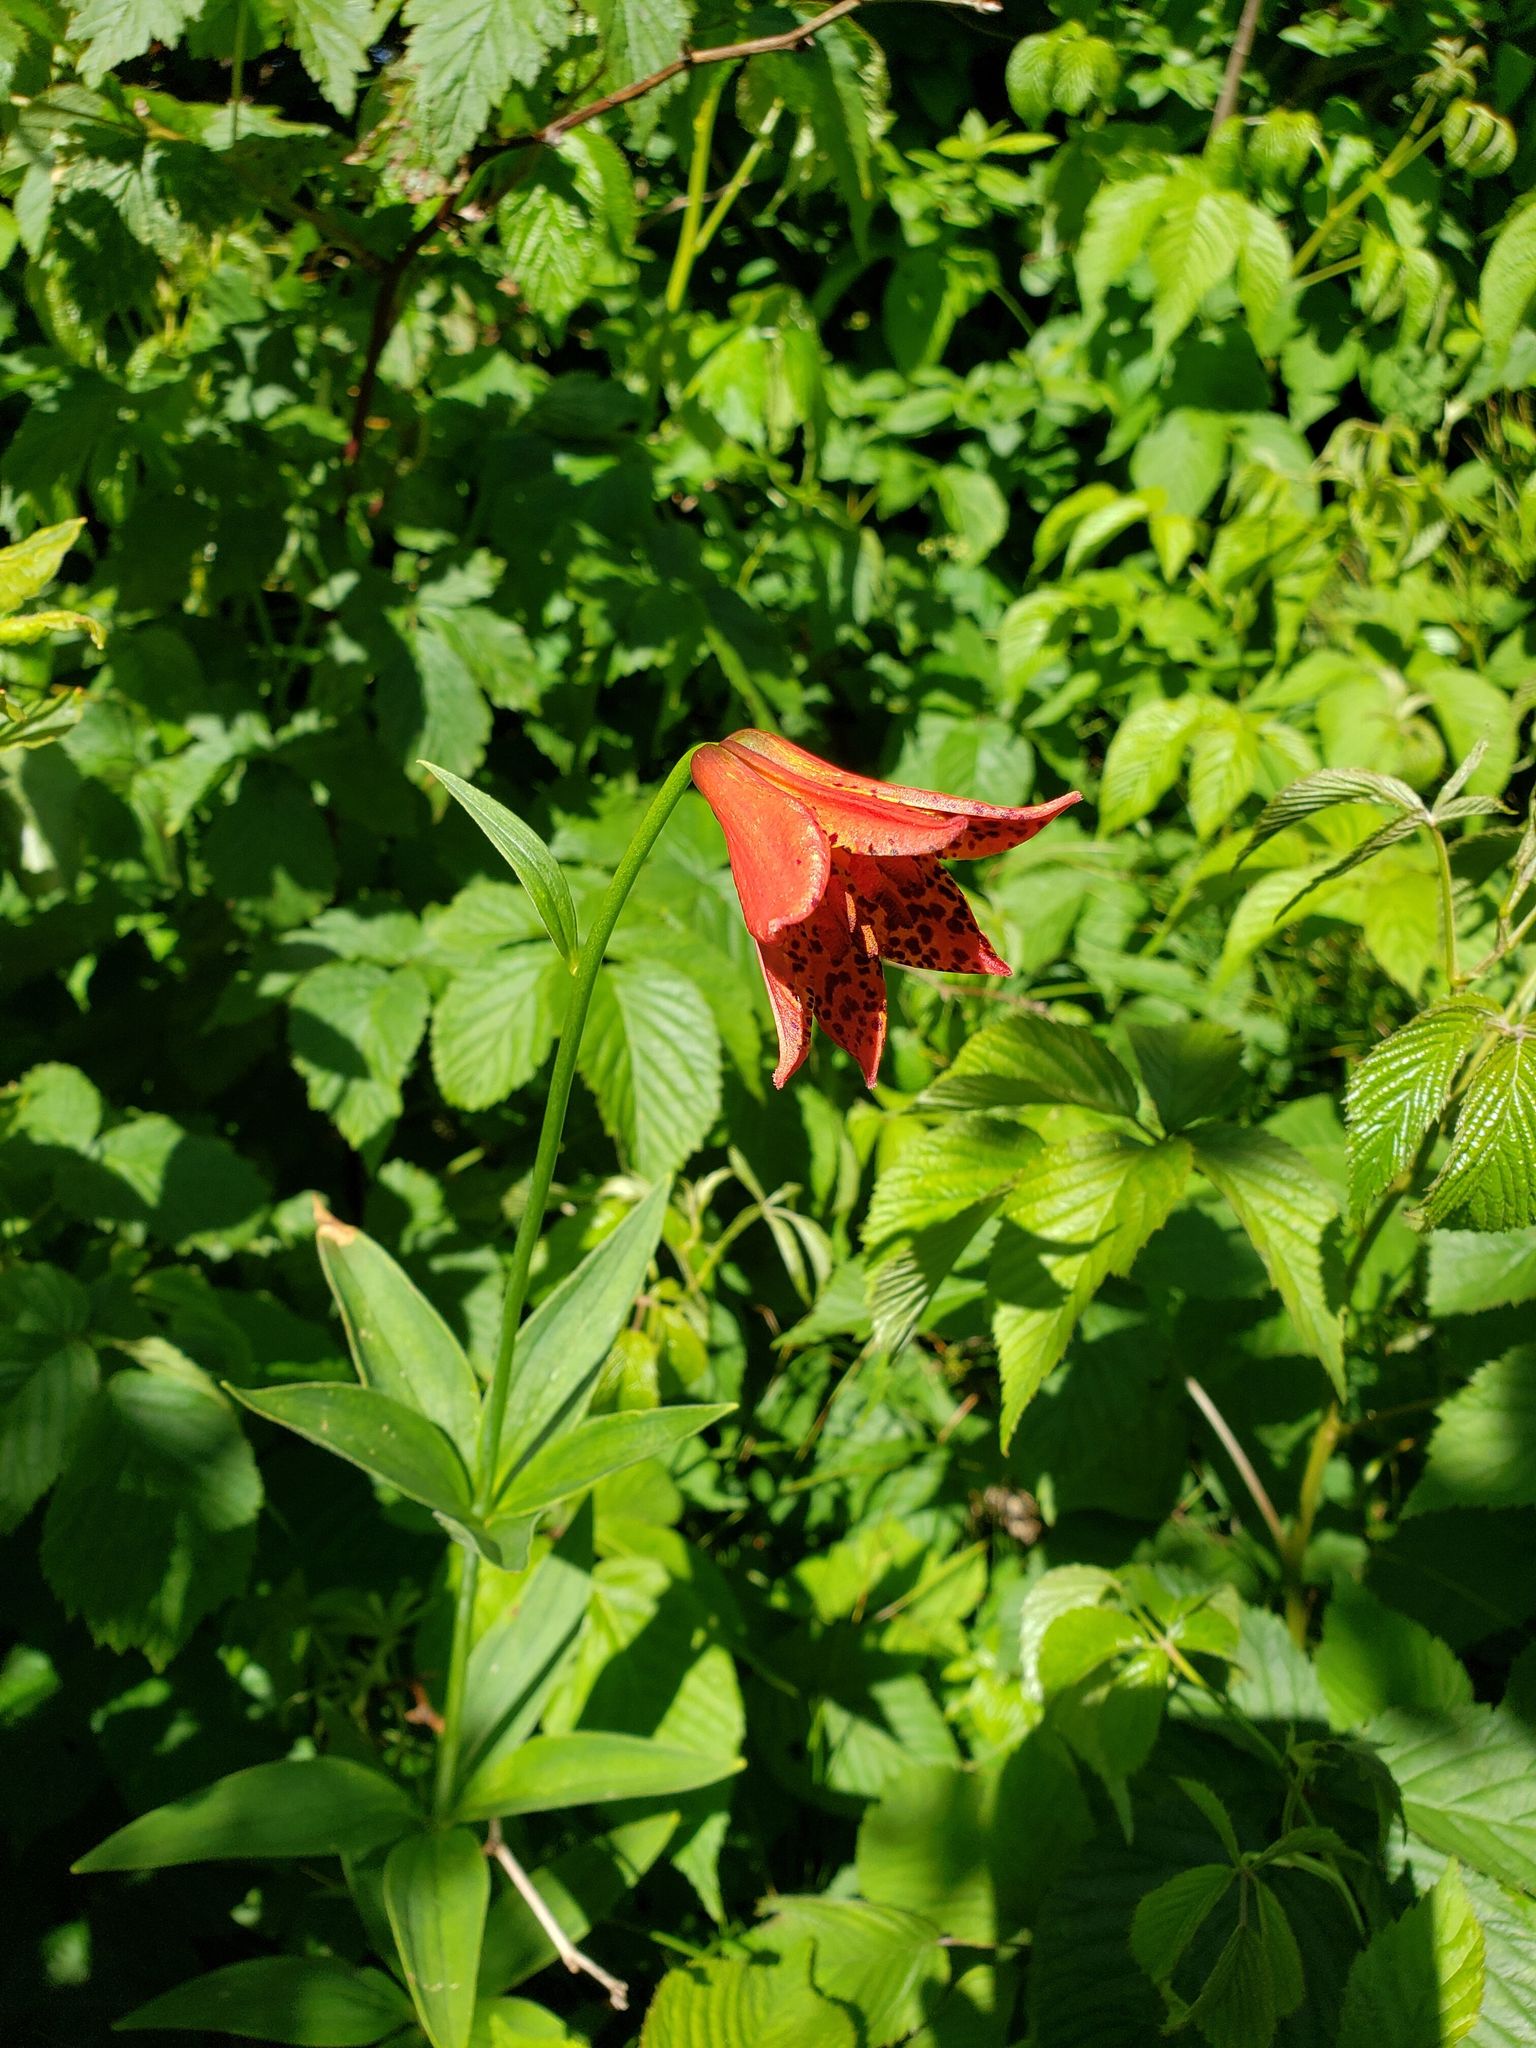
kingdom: Plantae
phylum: Tracheophyta
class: Liliopsida
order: Liliales
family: Liliaceae
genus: Lilium
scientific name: Lilium grayi
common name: Gray's lily
